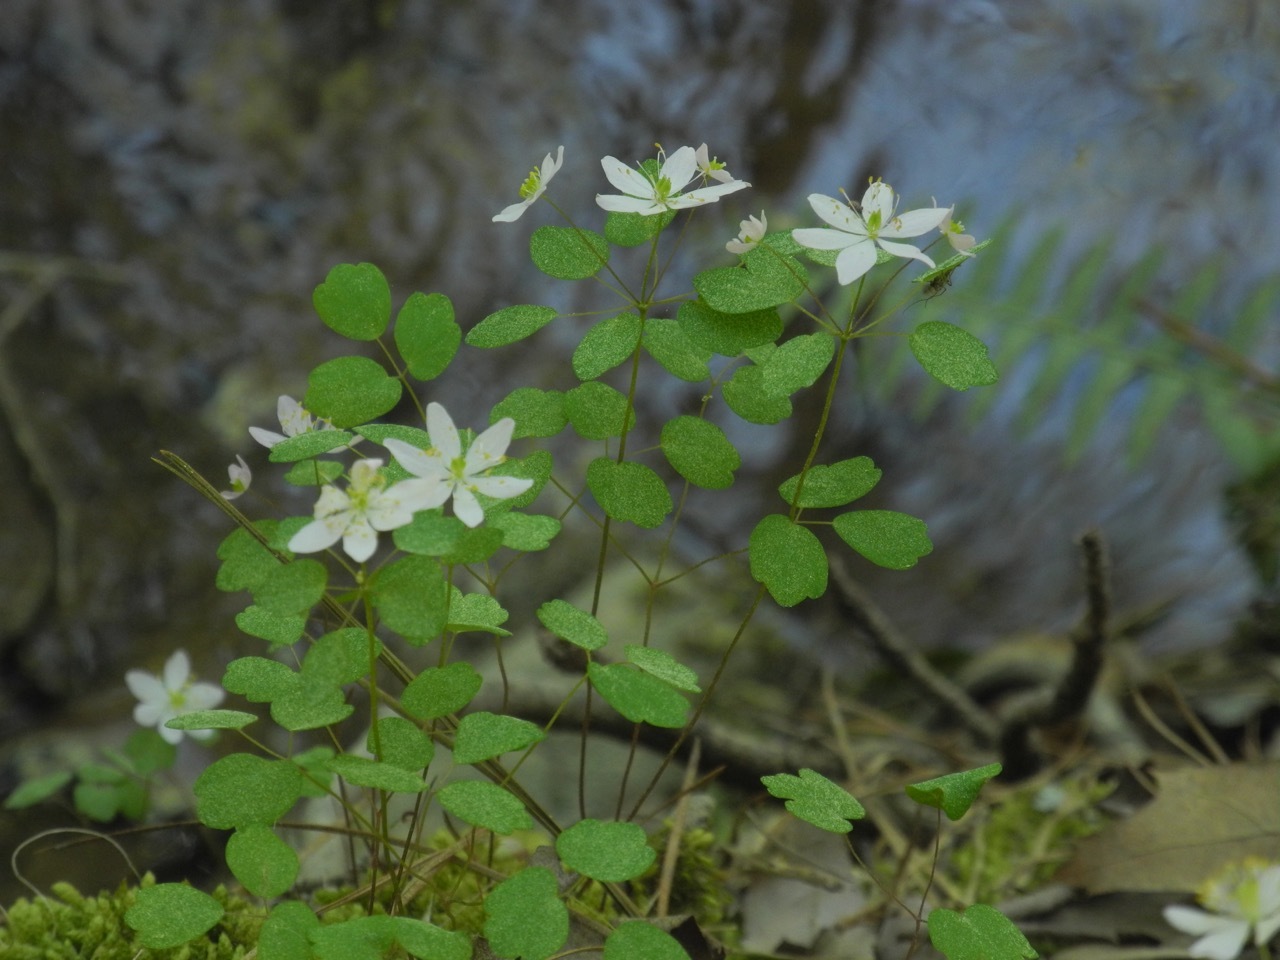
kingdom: Plantae
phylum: Tracheophyta
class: Magnoliopsida
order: Ranunculales
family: Ranunculaceae
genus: Thalictrum
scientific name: Thalictrum thalictroides
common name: Rue-anemone
